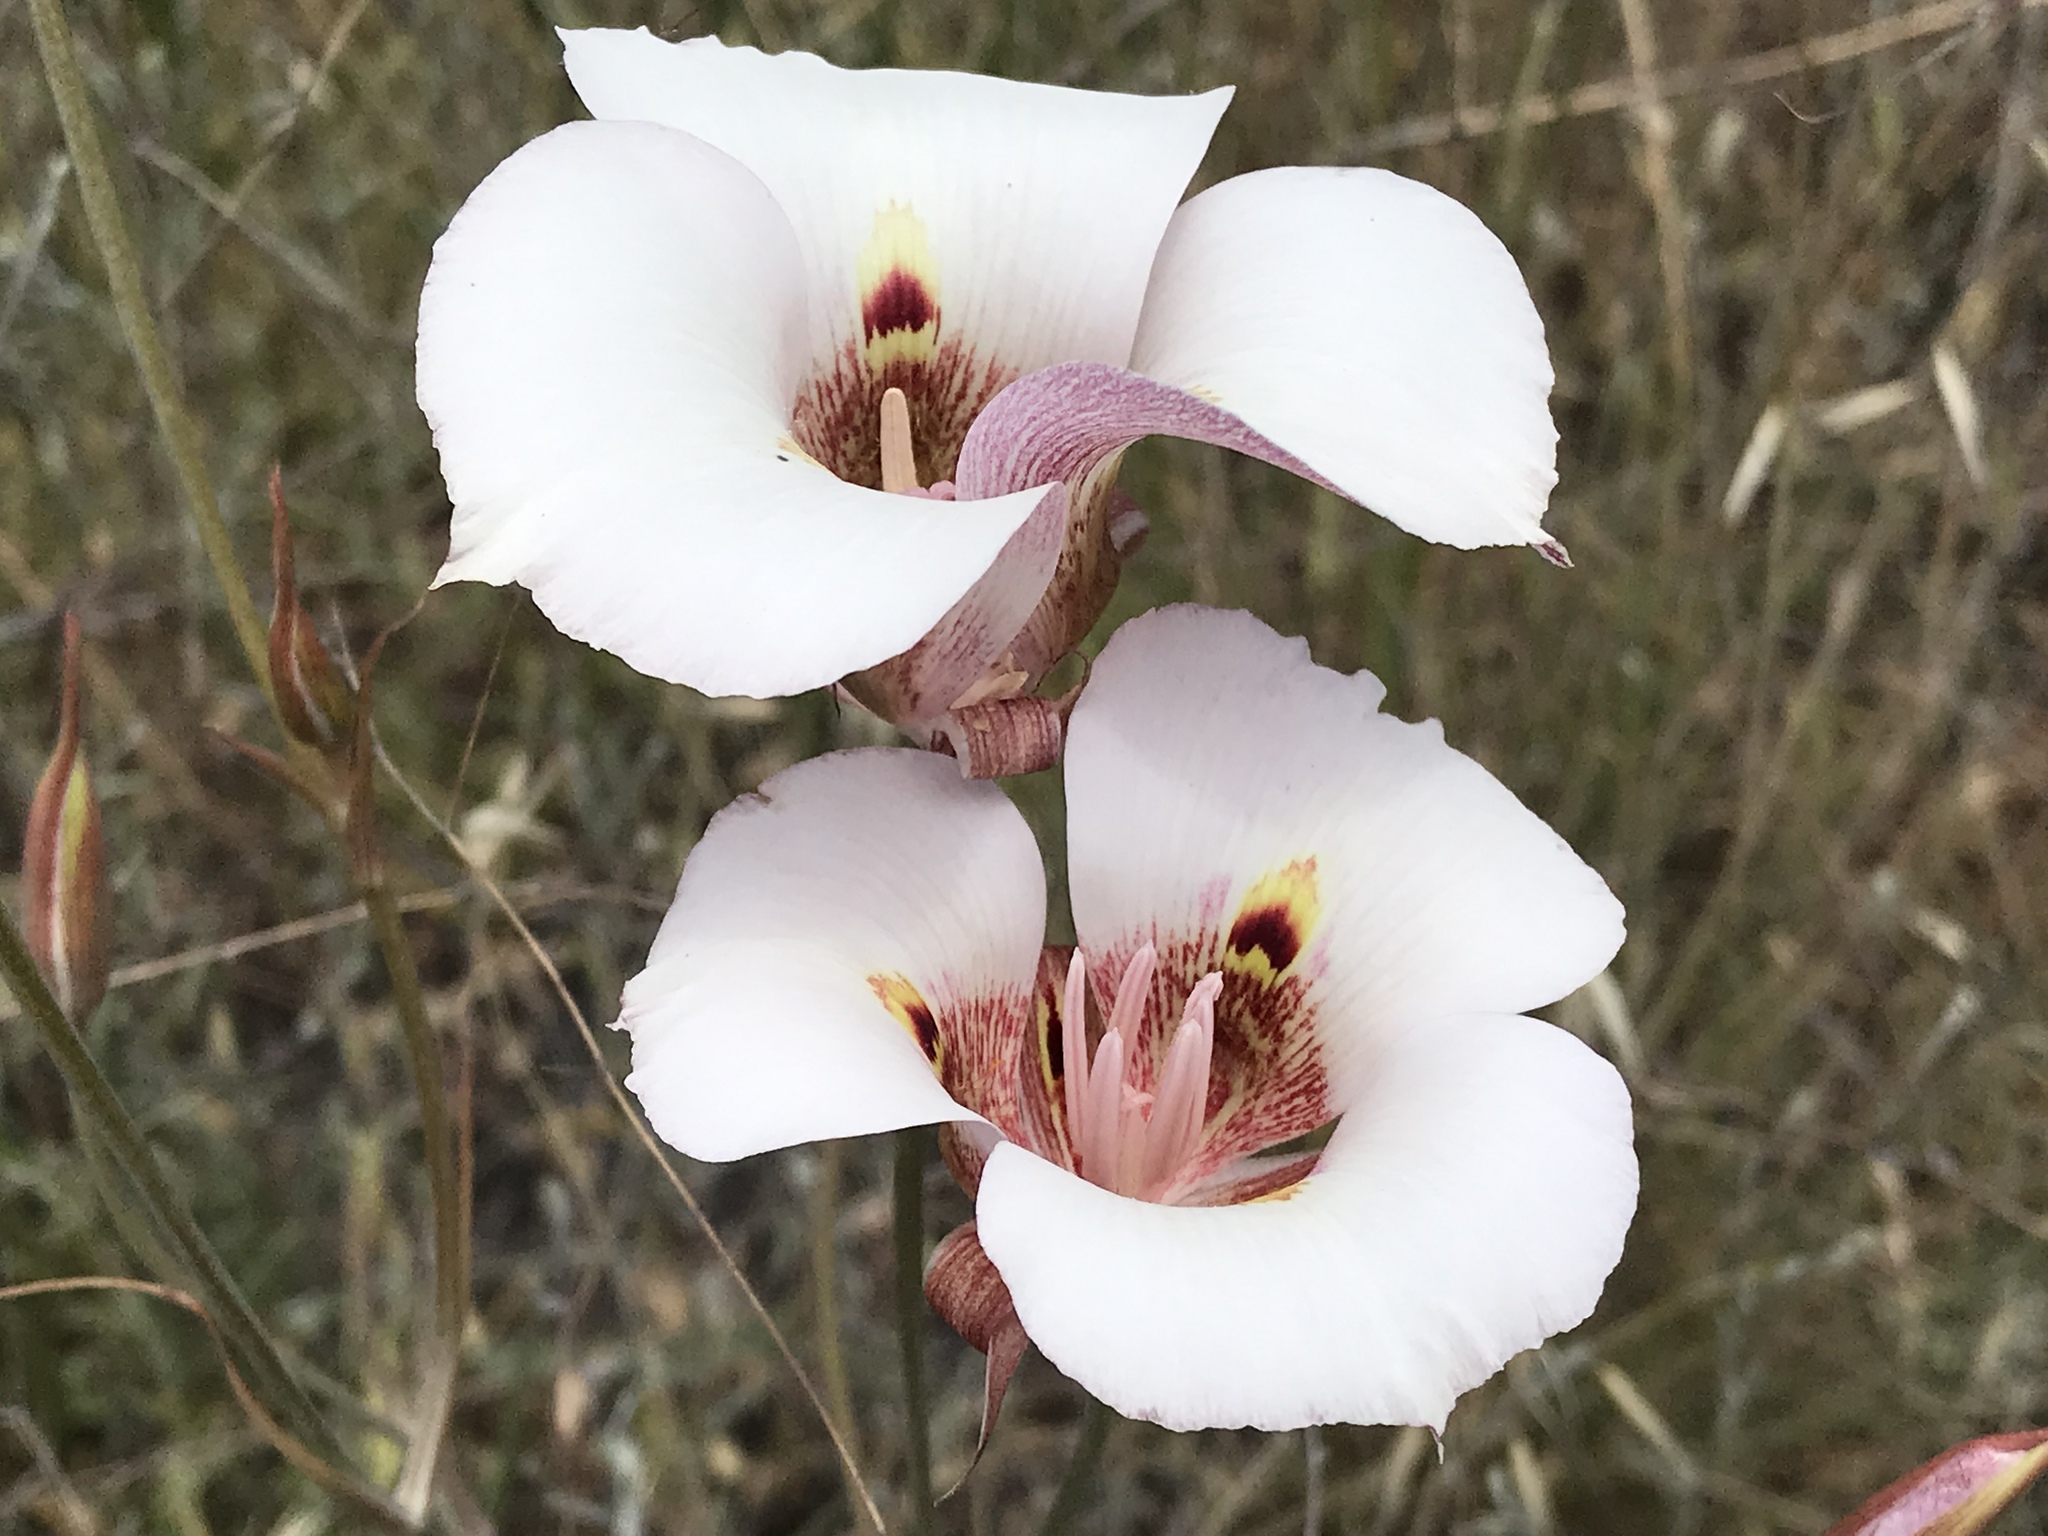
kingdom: Plantae
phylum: Tracheophyta
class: Liliopsida
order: Liliales
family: Liliaceae
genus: Calochortus
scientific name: Calochortus argillosus
